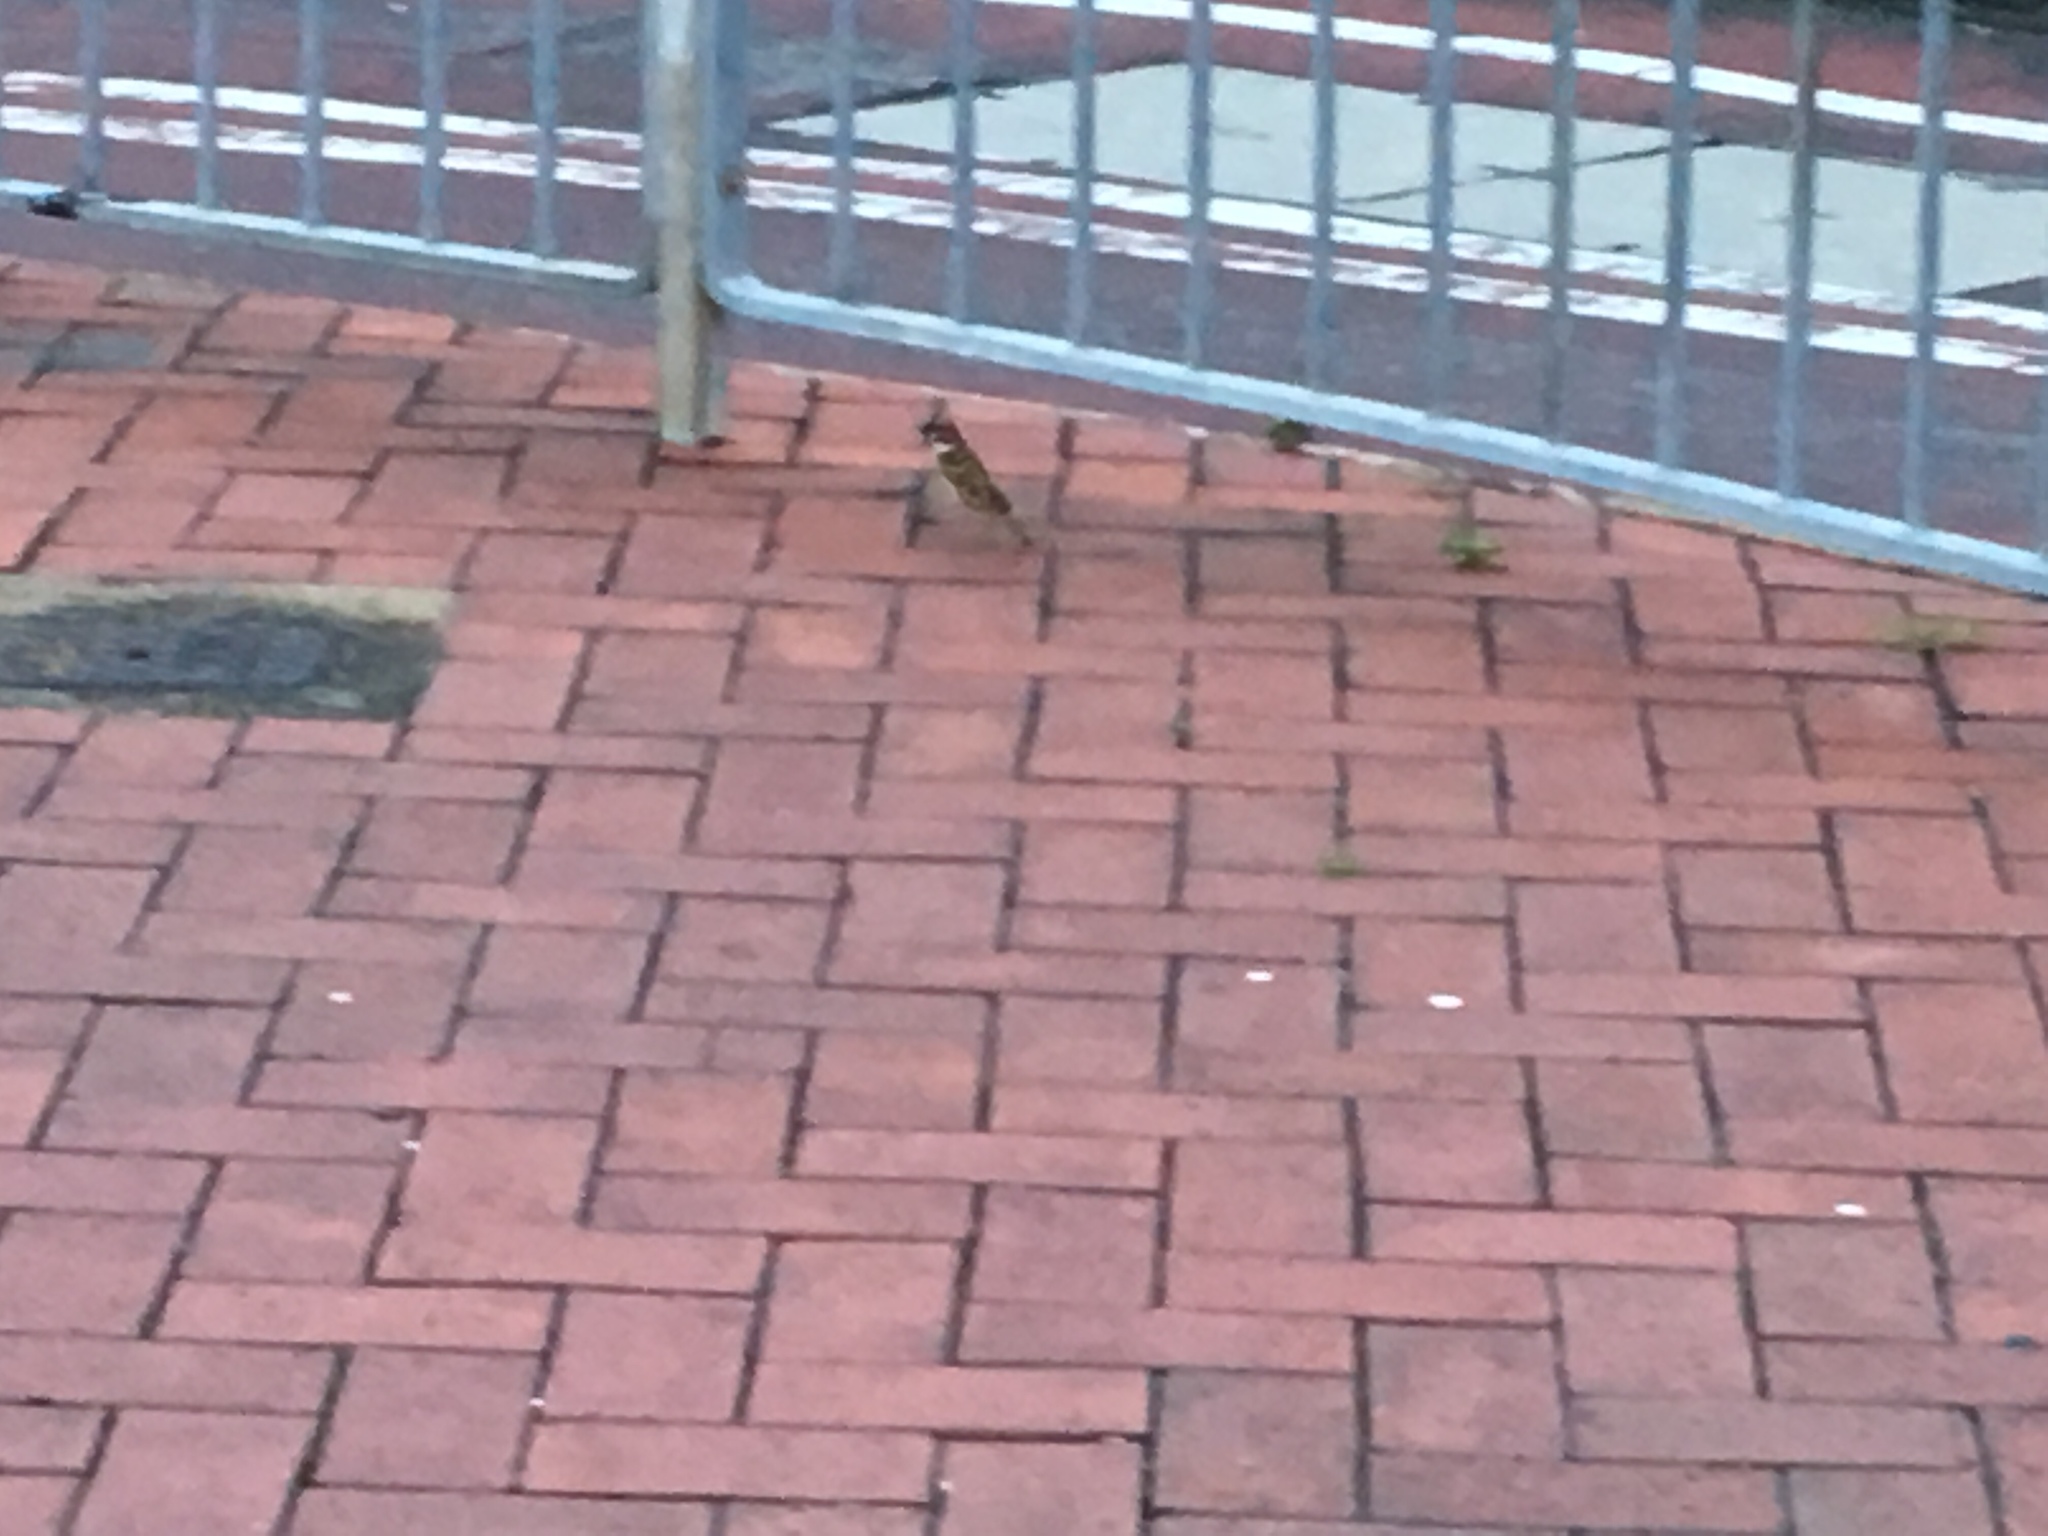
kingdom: Animalia
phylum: Chordata
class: Aves
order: Passeriformes
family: Passeridae
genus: Passer
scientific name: Passer montanus
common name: Eurasian tree sparrow
